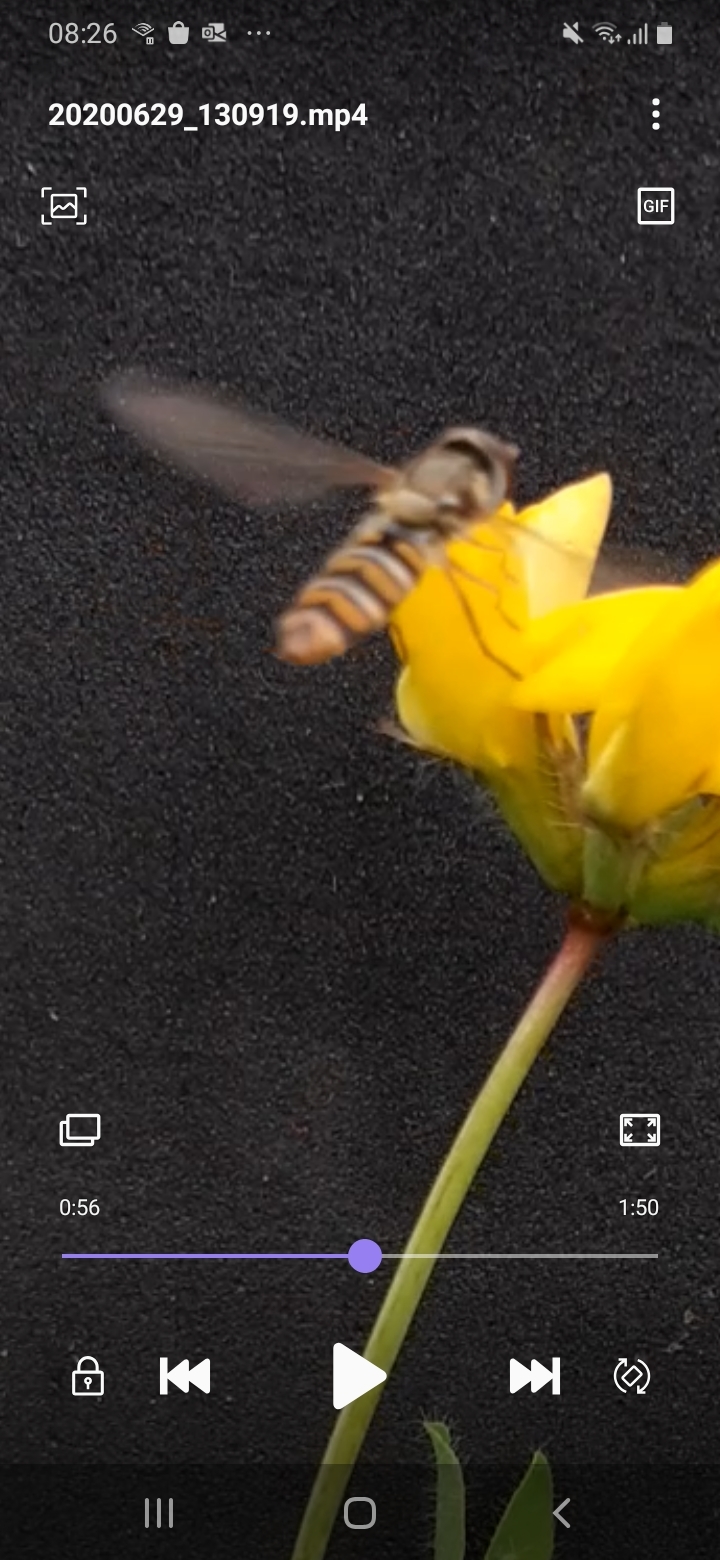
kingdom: Animalia
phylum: Arthropoda
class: Insecta
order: Diptera
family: Syrphidae
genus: Episyrphus
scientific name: Episyrphus balteatus
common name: Marmalade hoverfly
